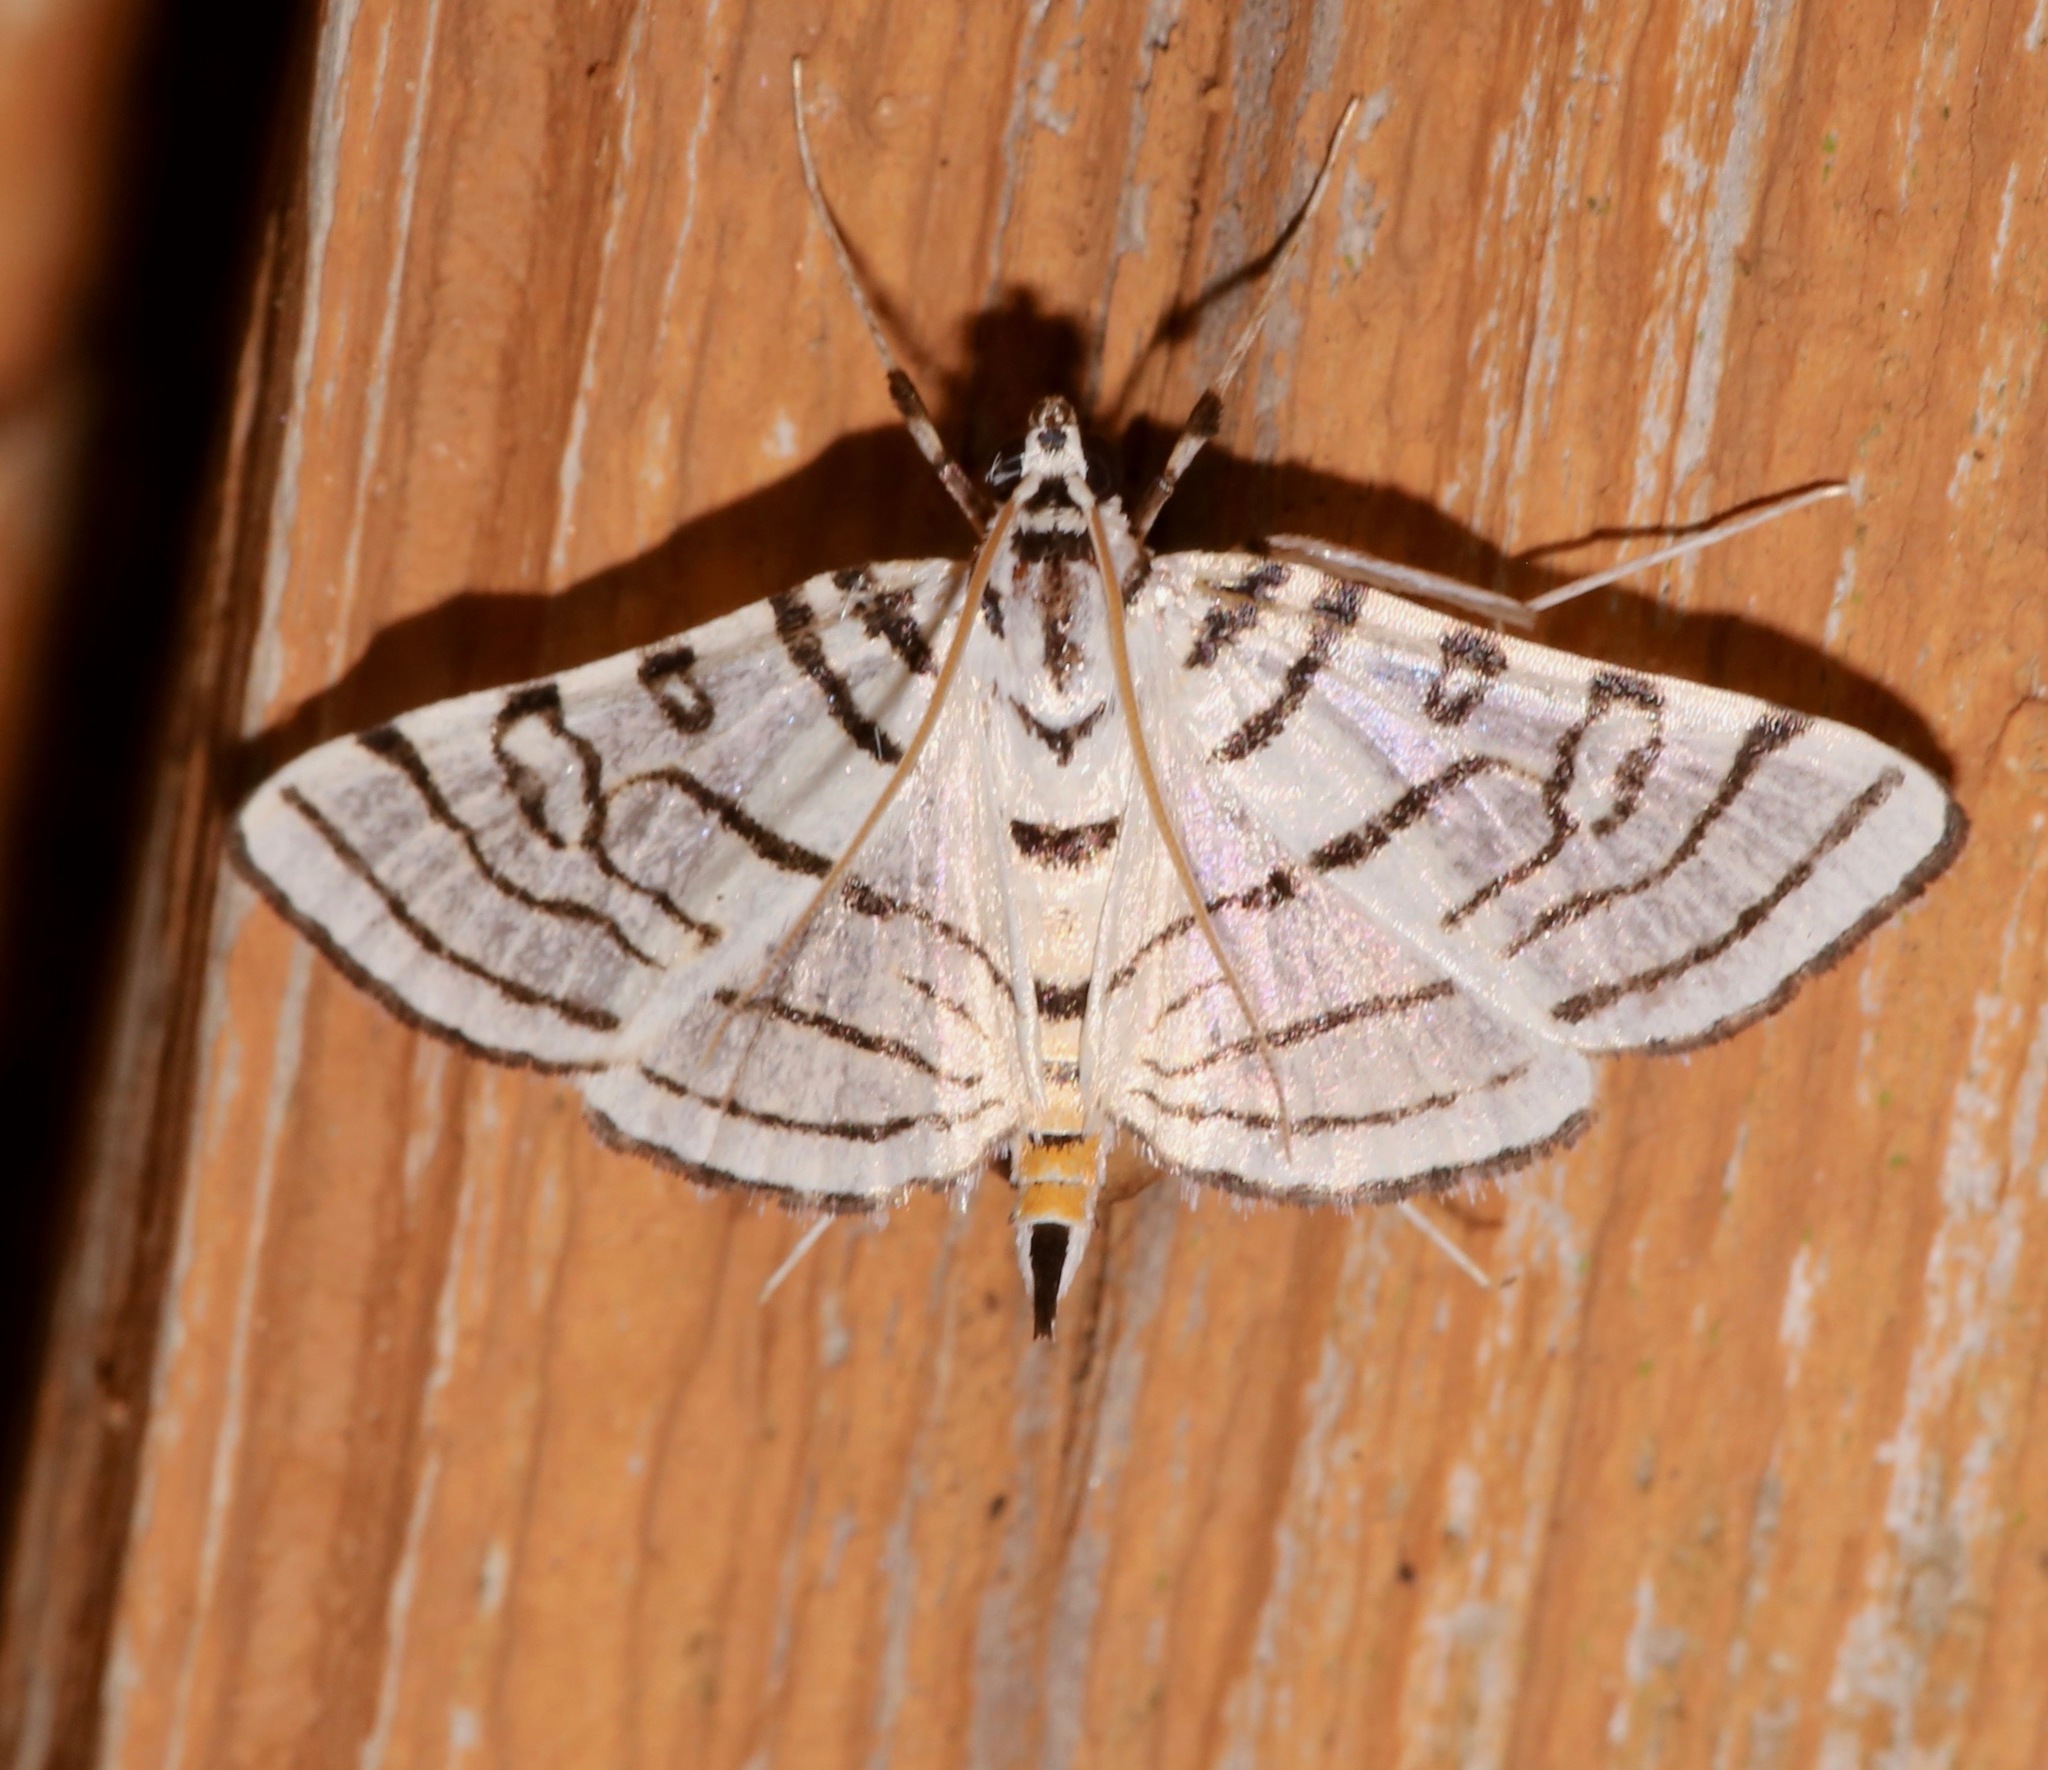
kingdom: Animalia
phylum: Arthropoda
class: Insecta
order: Lepidoptera
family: Crambidae
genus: Conchylodes
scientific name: Conchylodes concinnalis
